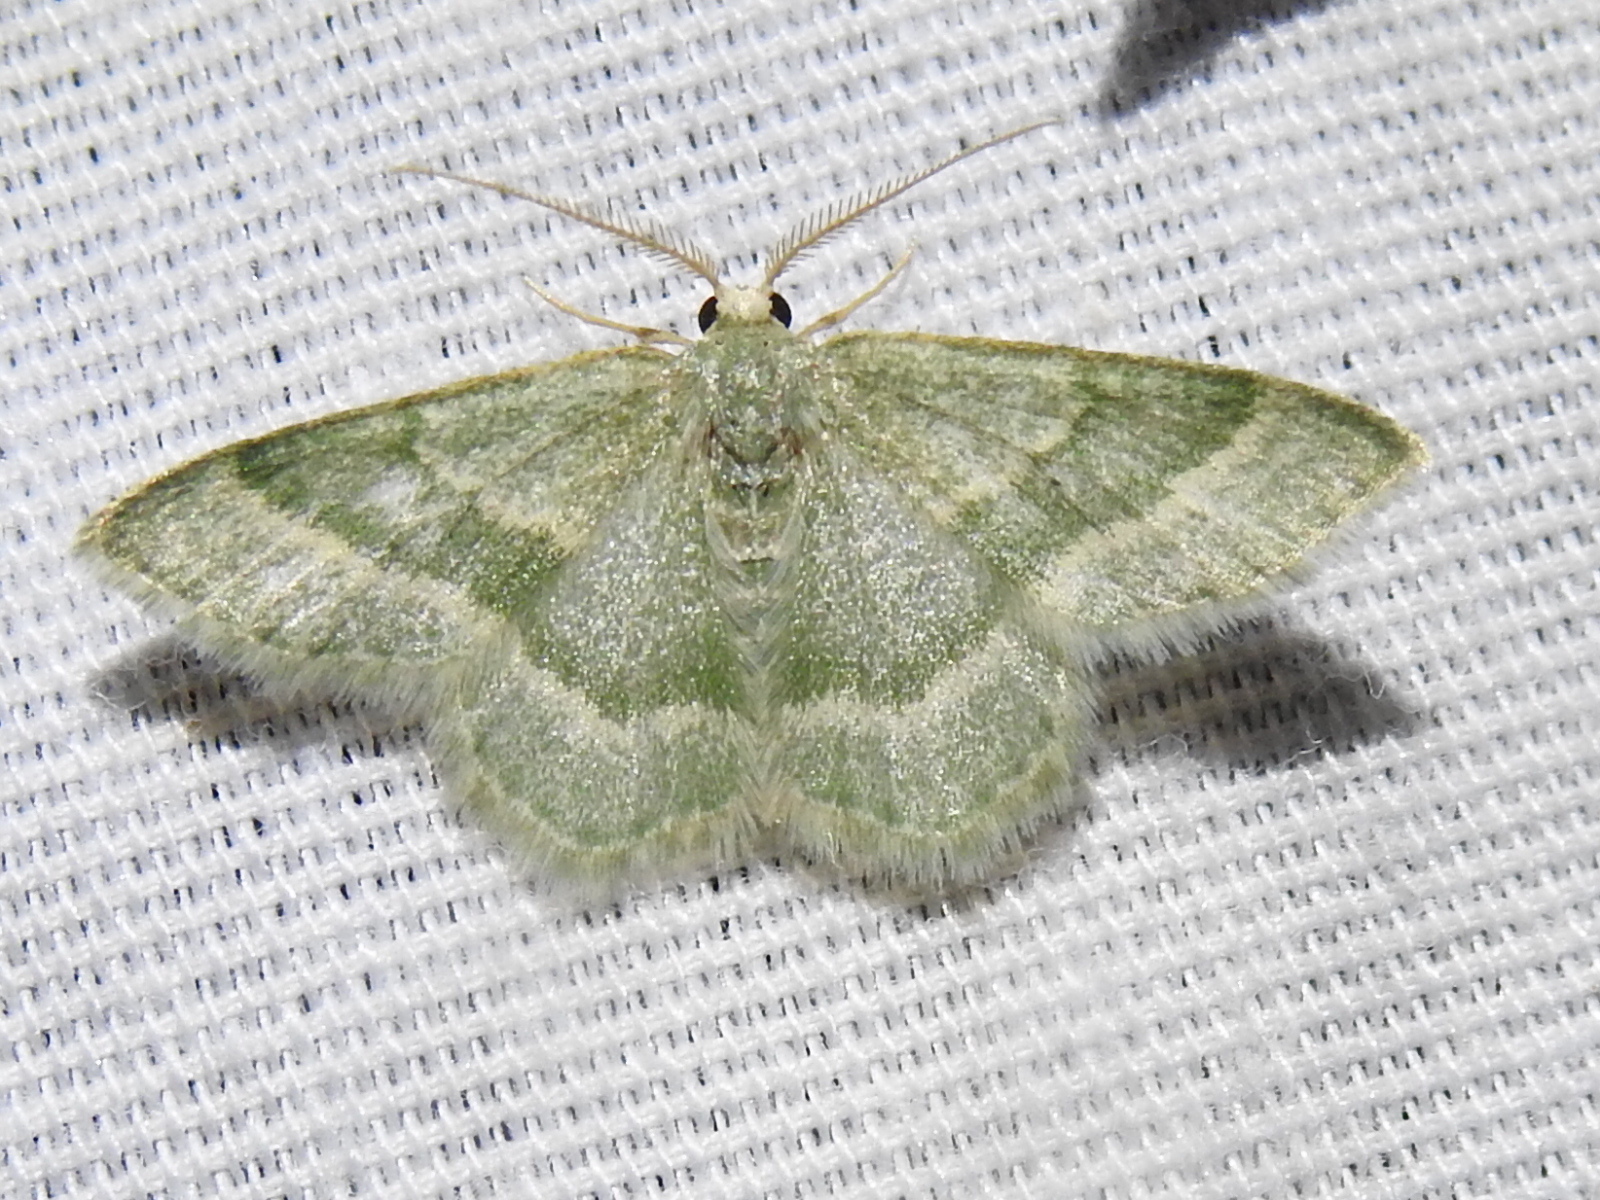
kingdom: Animalia
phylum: Arthropoda
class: Insecta
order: Lepidoptera
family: Geometridae
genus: Chlorochlamys
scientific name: Chlorochlamys appellaria
